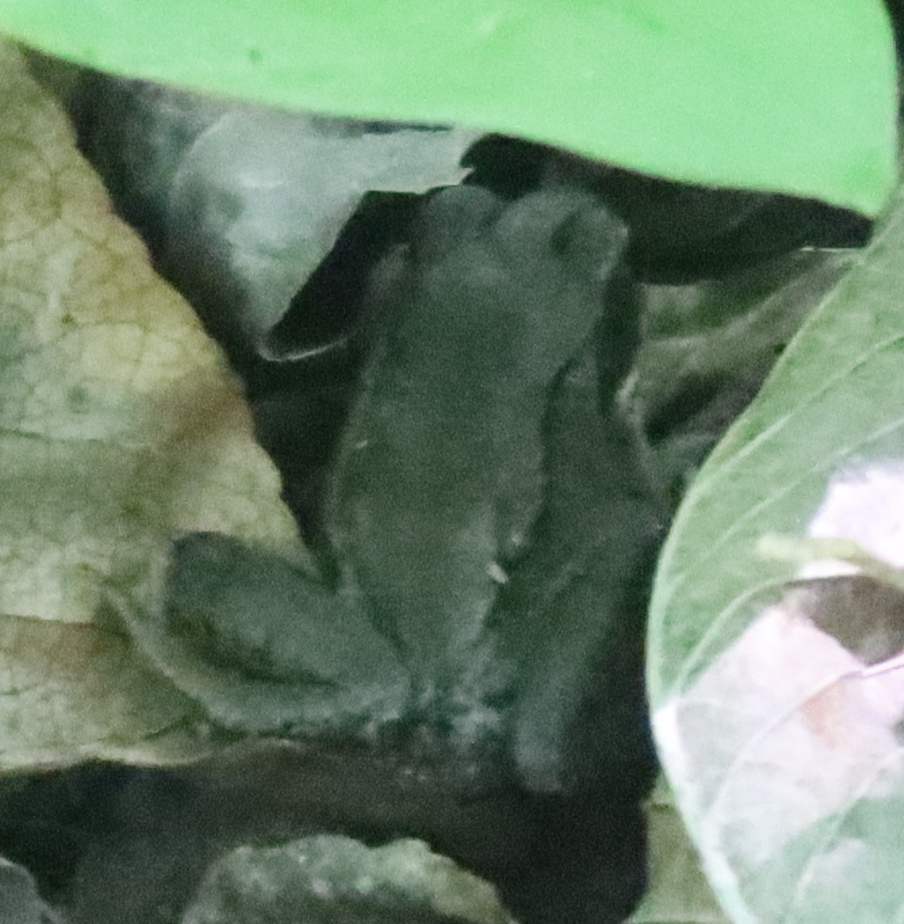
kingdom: Animalia
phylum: Chordata
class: Amphibia
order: Anura
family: Ranidae
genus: Lithobates
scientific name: Lithobates sylvaticus
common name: Wood frog
